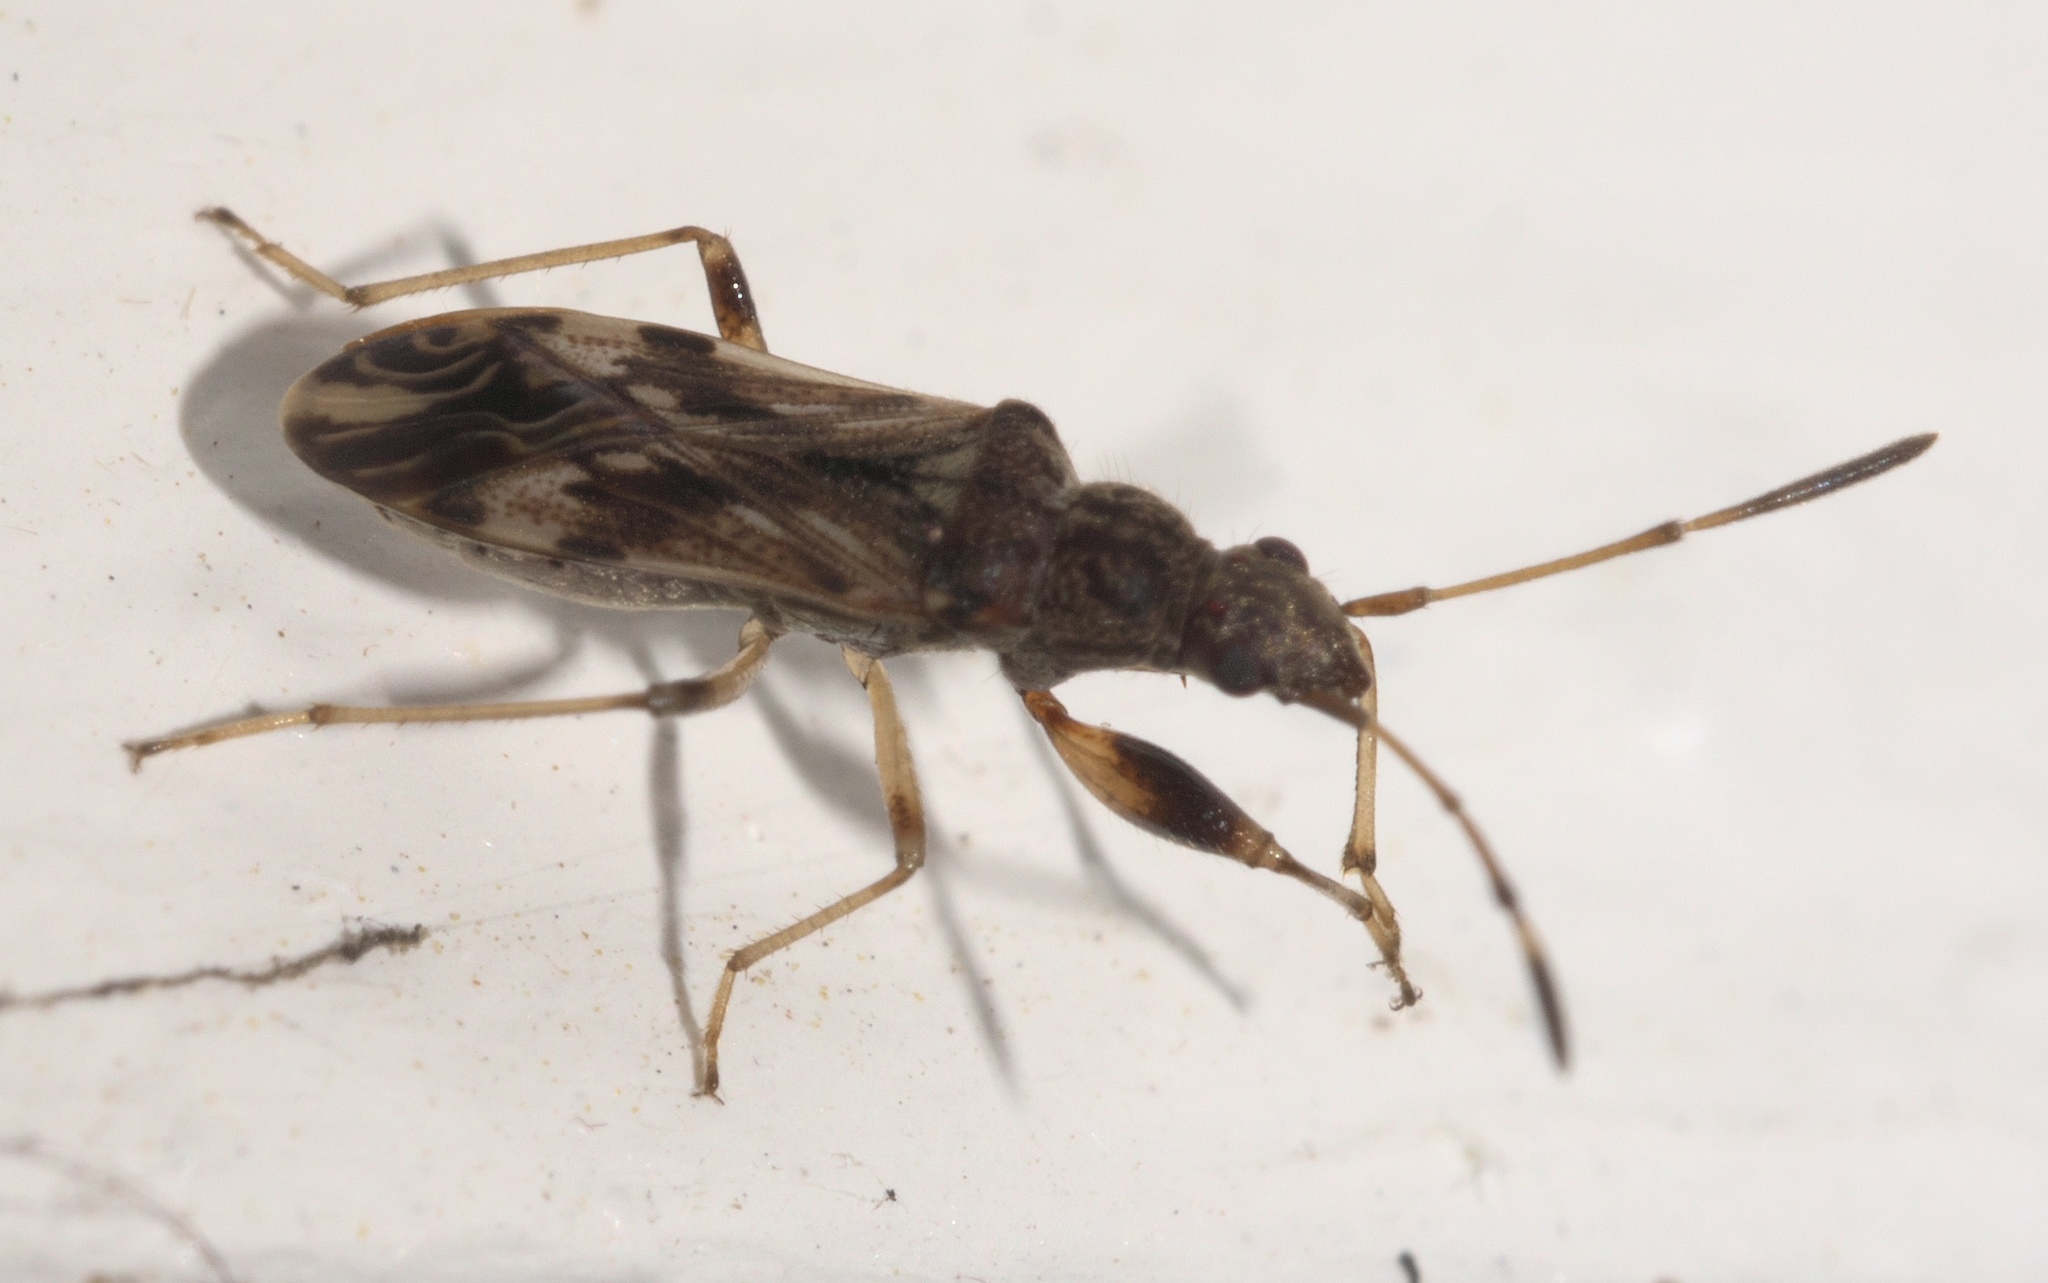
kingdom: Animalia
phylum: Arthropoda
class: Insecta
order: Hemiptera
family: Rhyparochromidae
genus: Neopamera
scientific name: Neopamera albocincta
